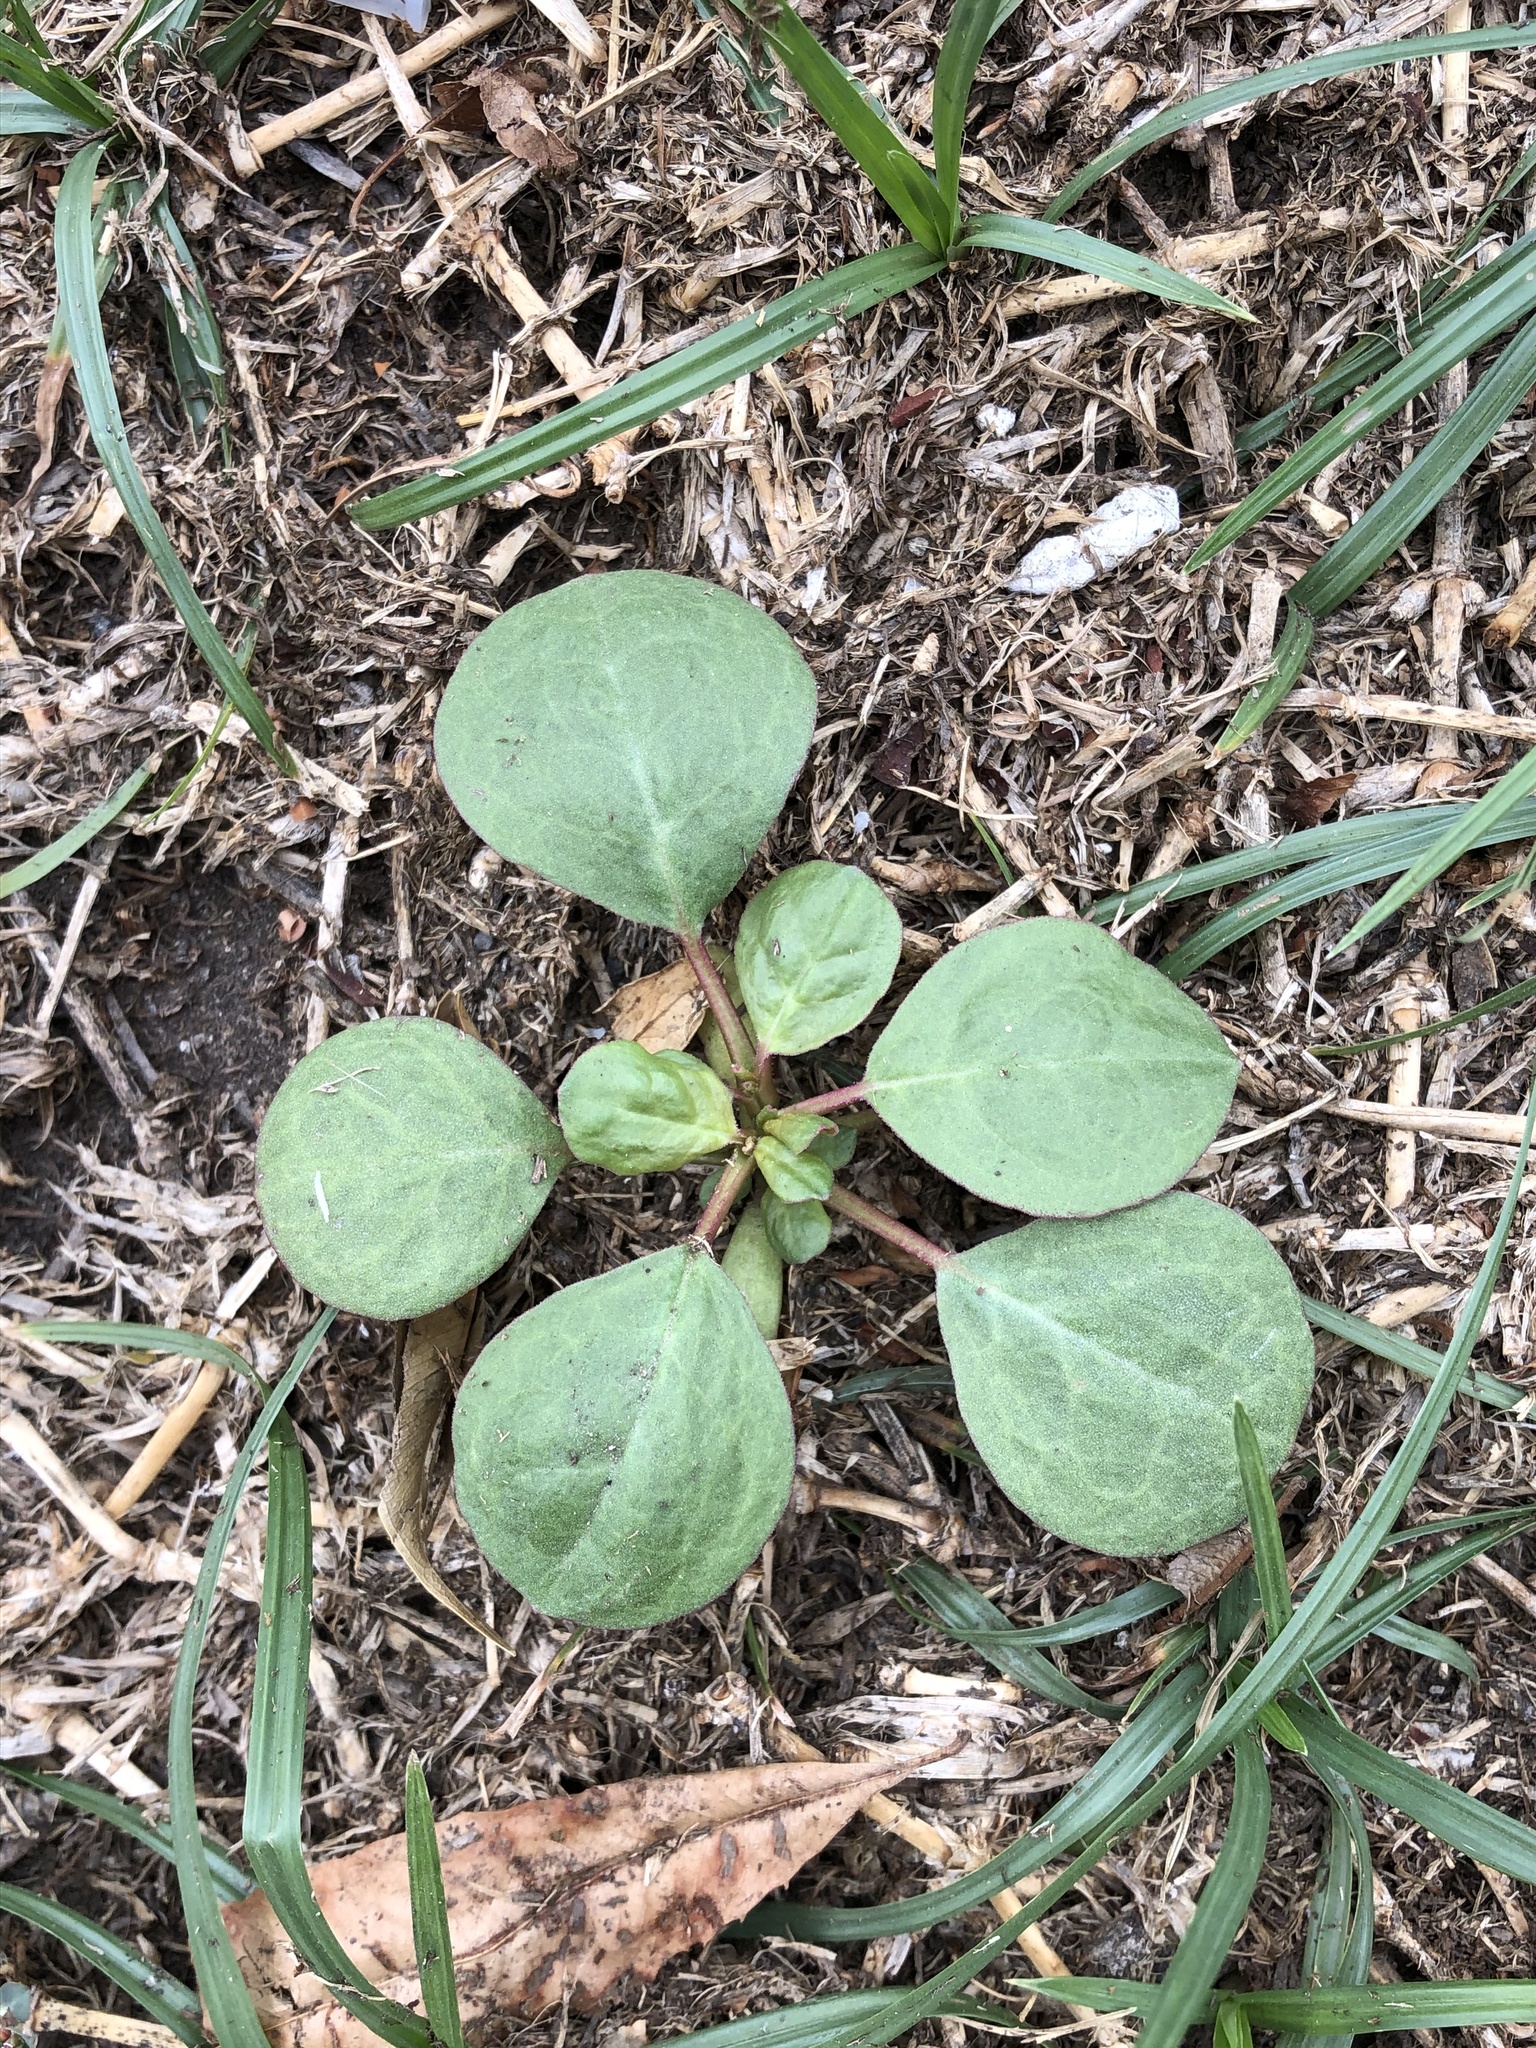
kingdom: Plantae
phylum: Tracheophyta
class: Magnoliopsida
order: Caryophyllales
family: Amaranthaceae
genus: Alternanthera
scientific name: Alternanthera pungens
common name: Khakiweed
